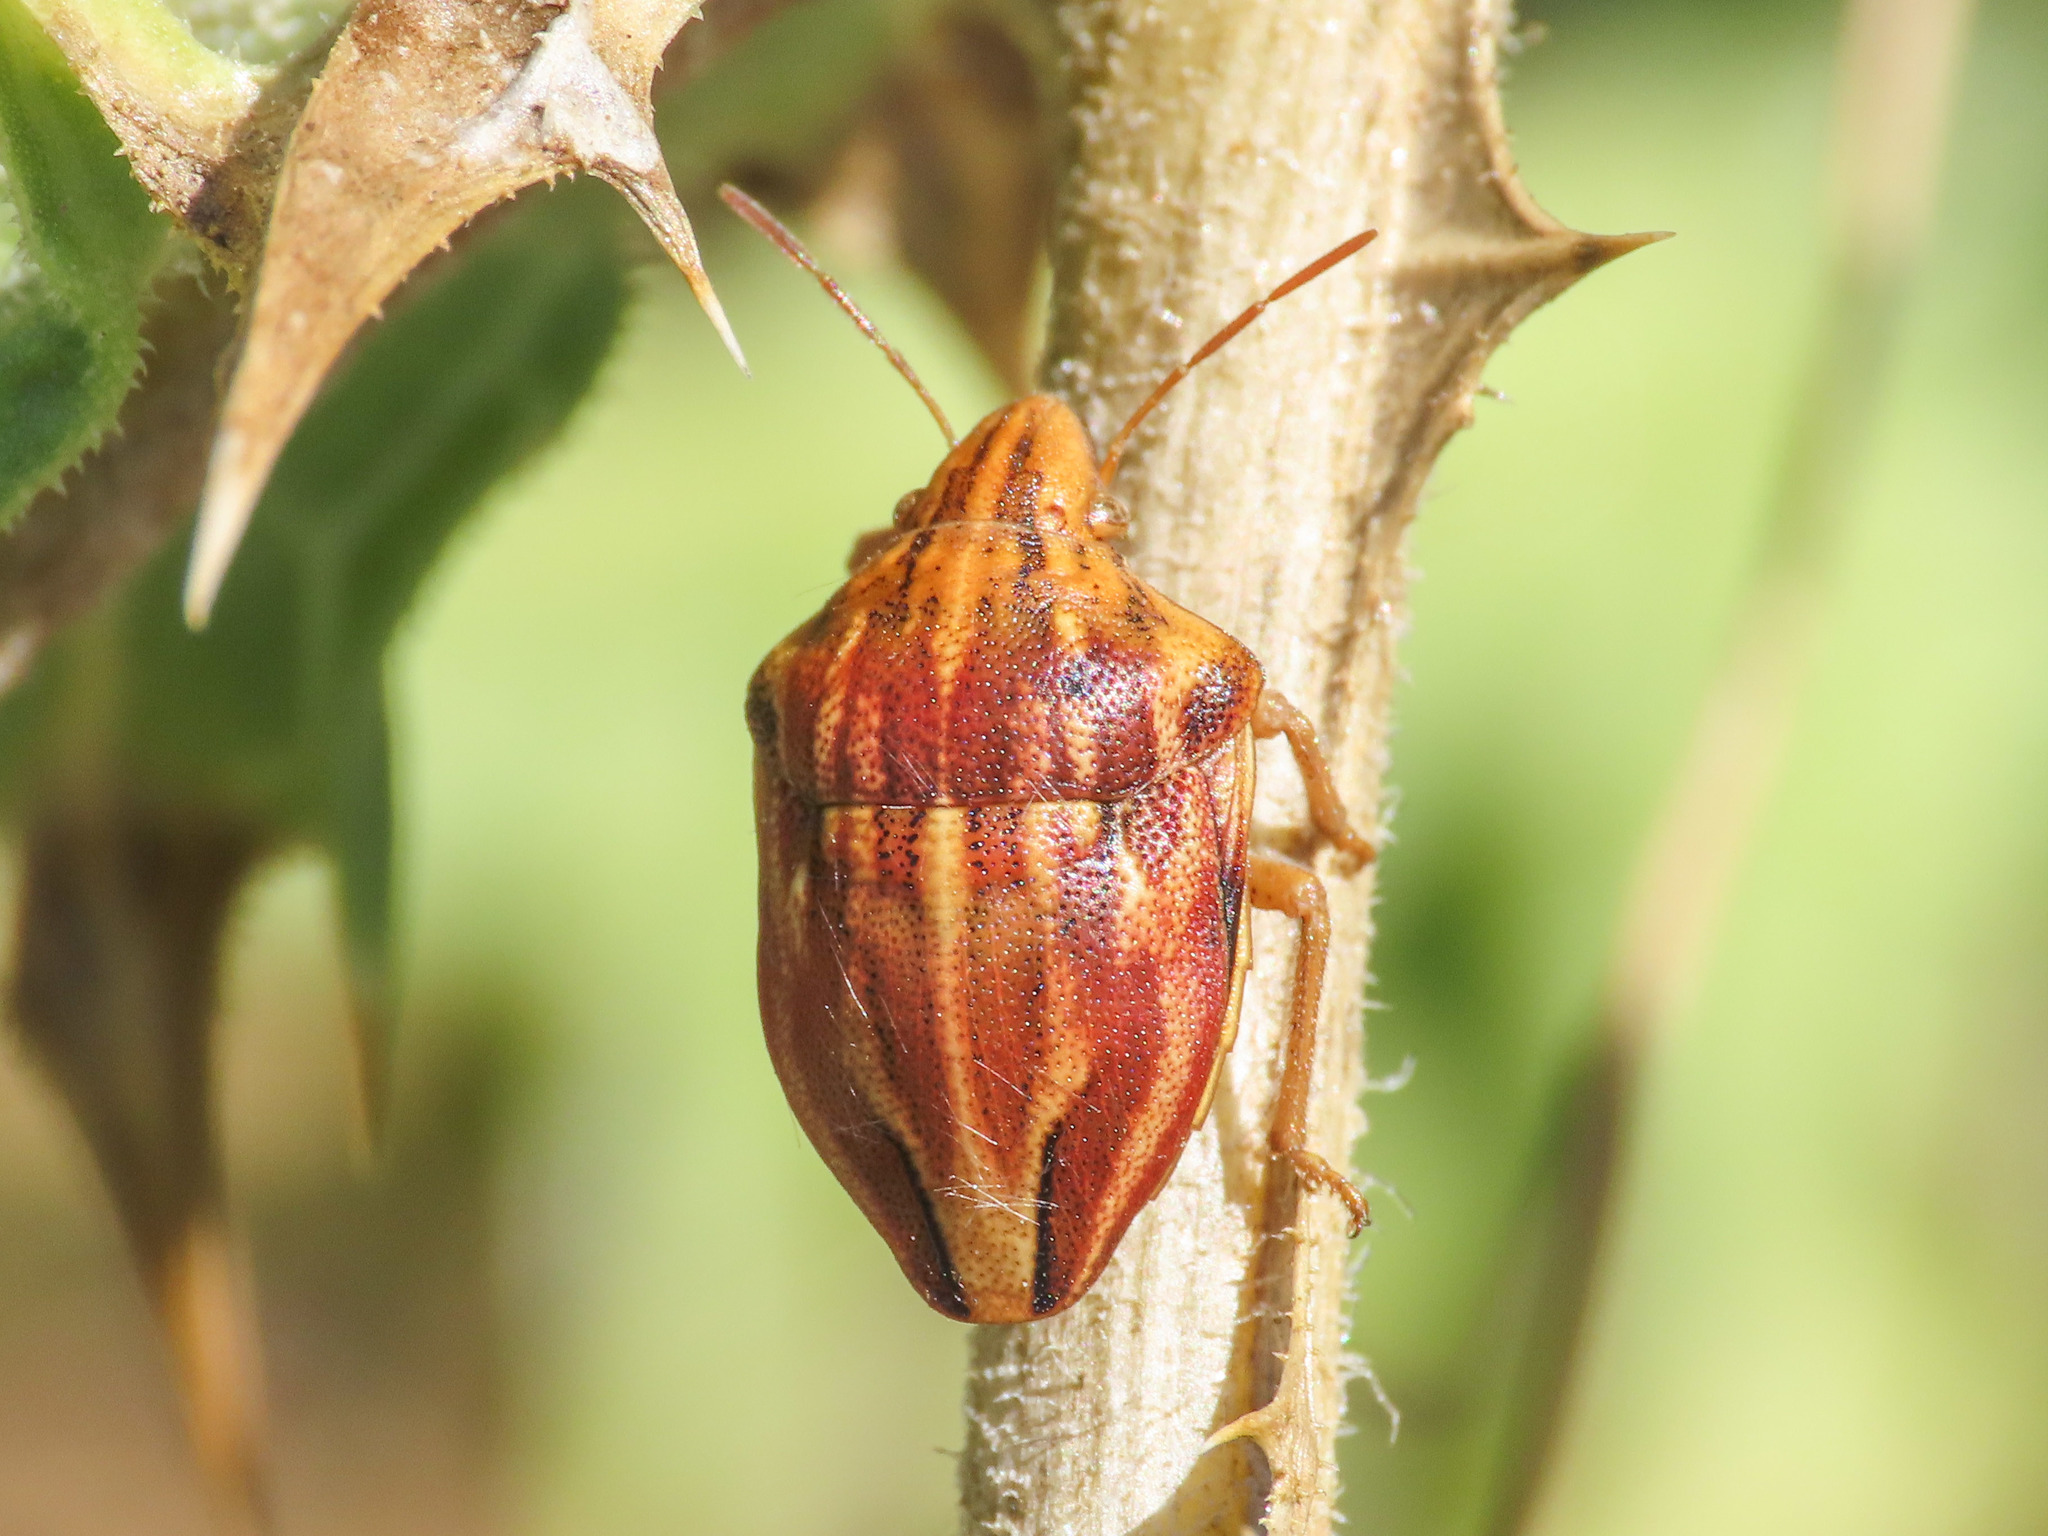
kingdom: Animalia
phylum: Arthropoda
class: Insecta
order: Hemiptera
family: Scutelleridae
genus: Odontotarsus
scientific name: Odontotarsus purpureolineatus
